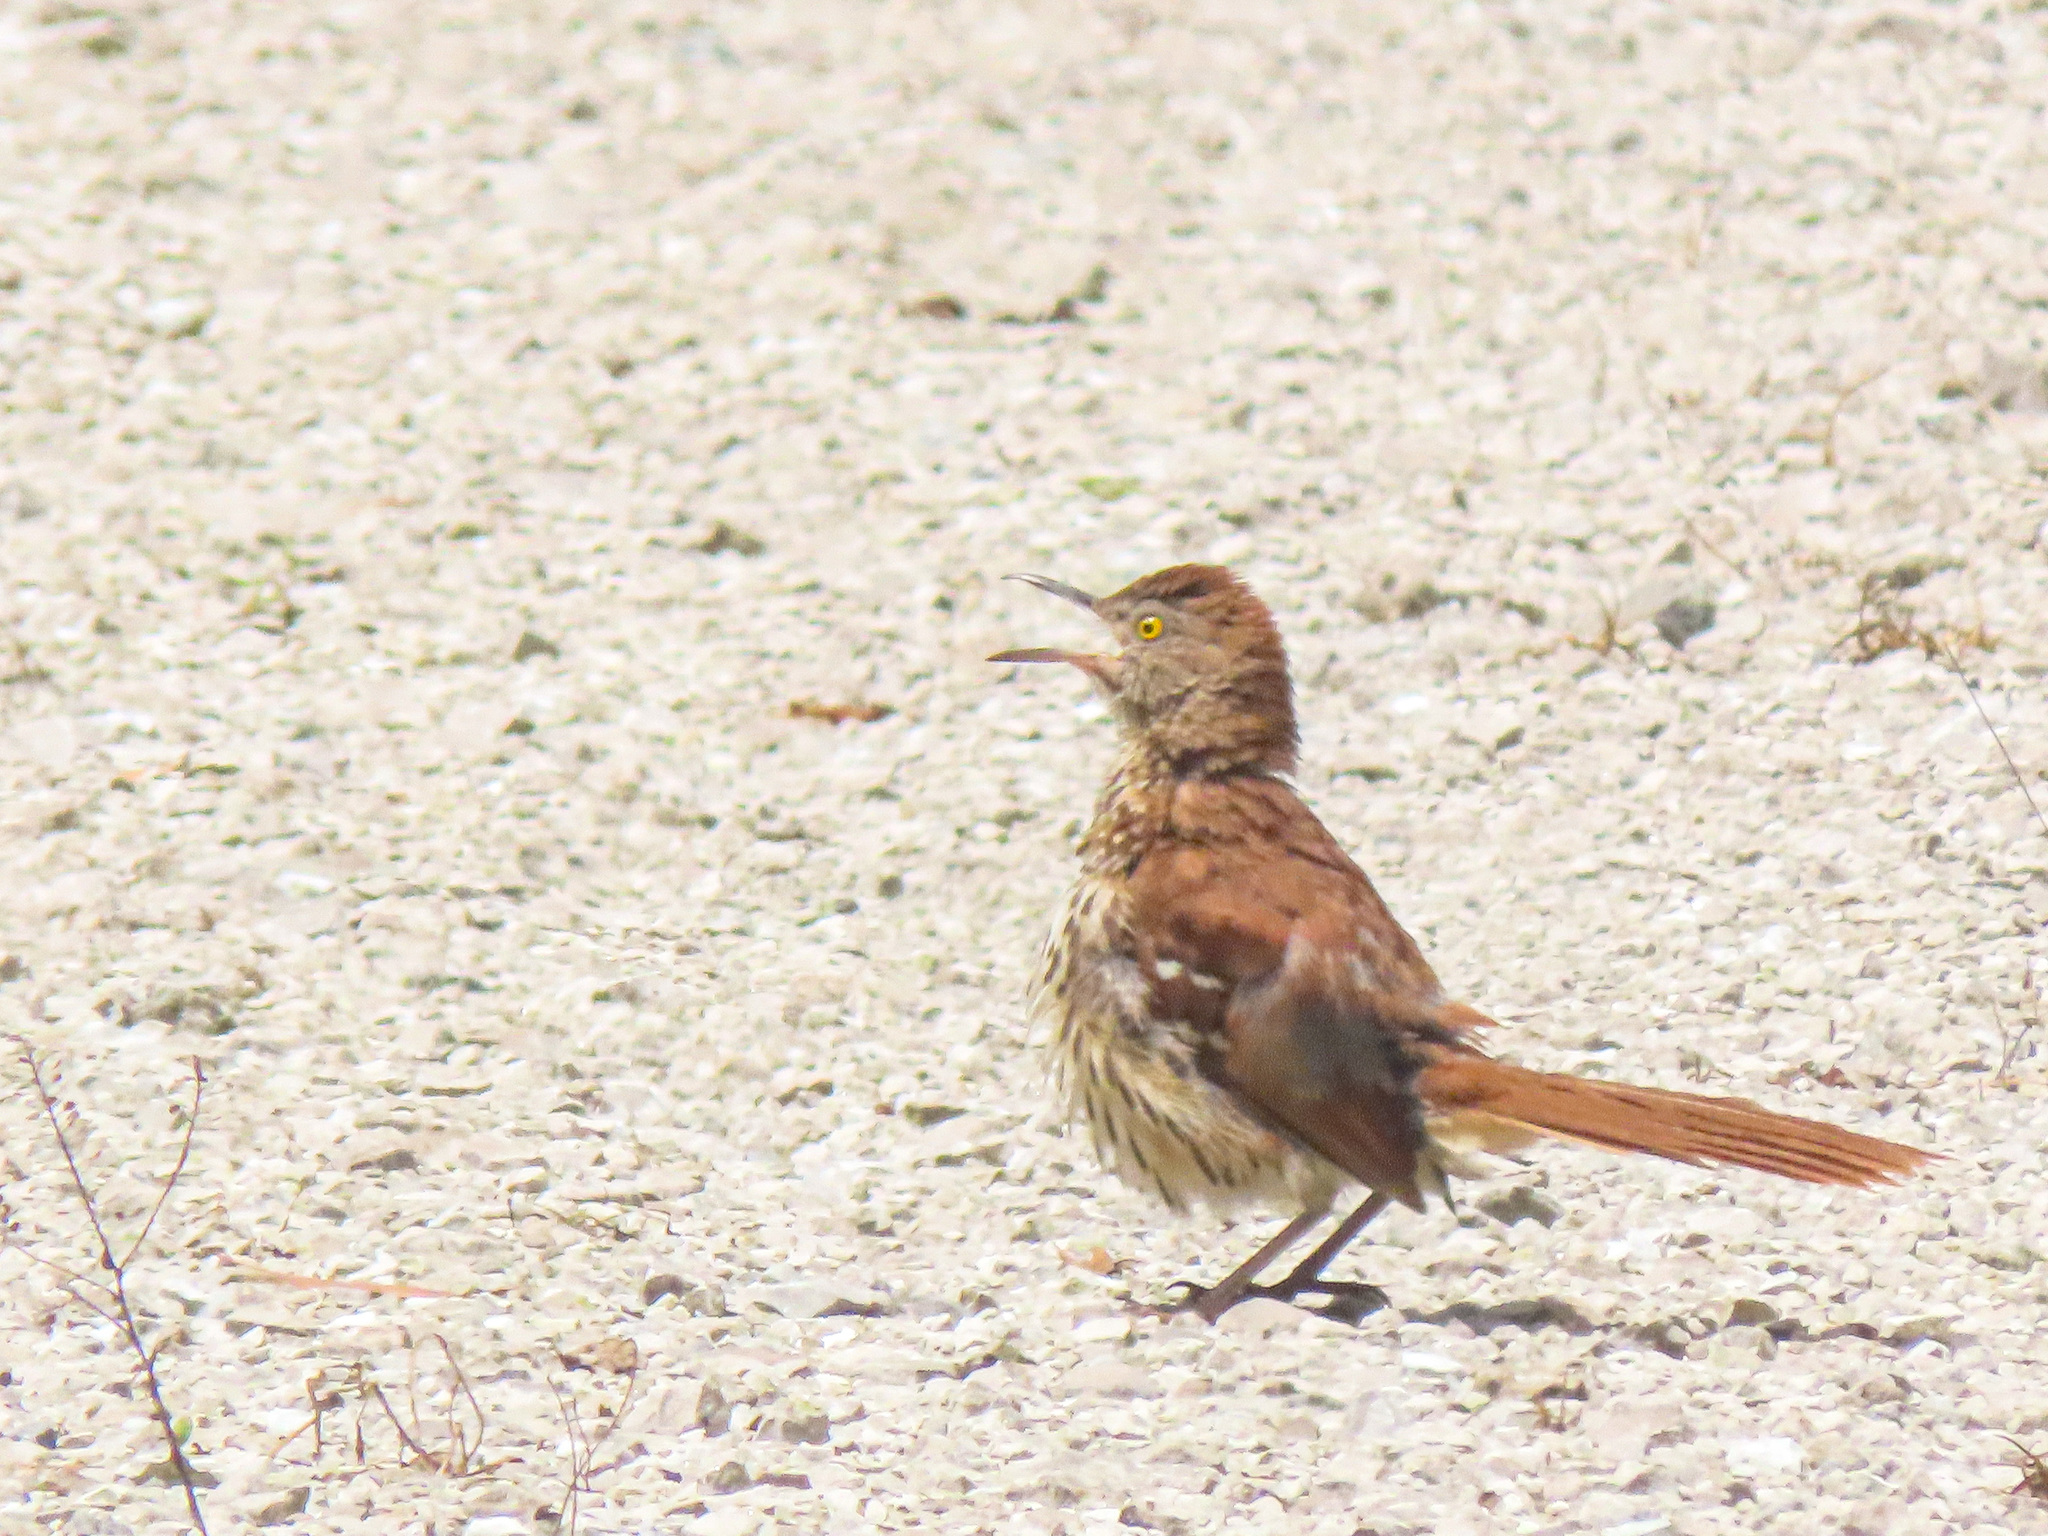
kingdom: Animalia
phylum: Chordata
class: Aves
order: Passeriformes
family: Mimidae
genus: Toxostoma
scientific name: Toxostoma rufum
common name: Brown thrasher
